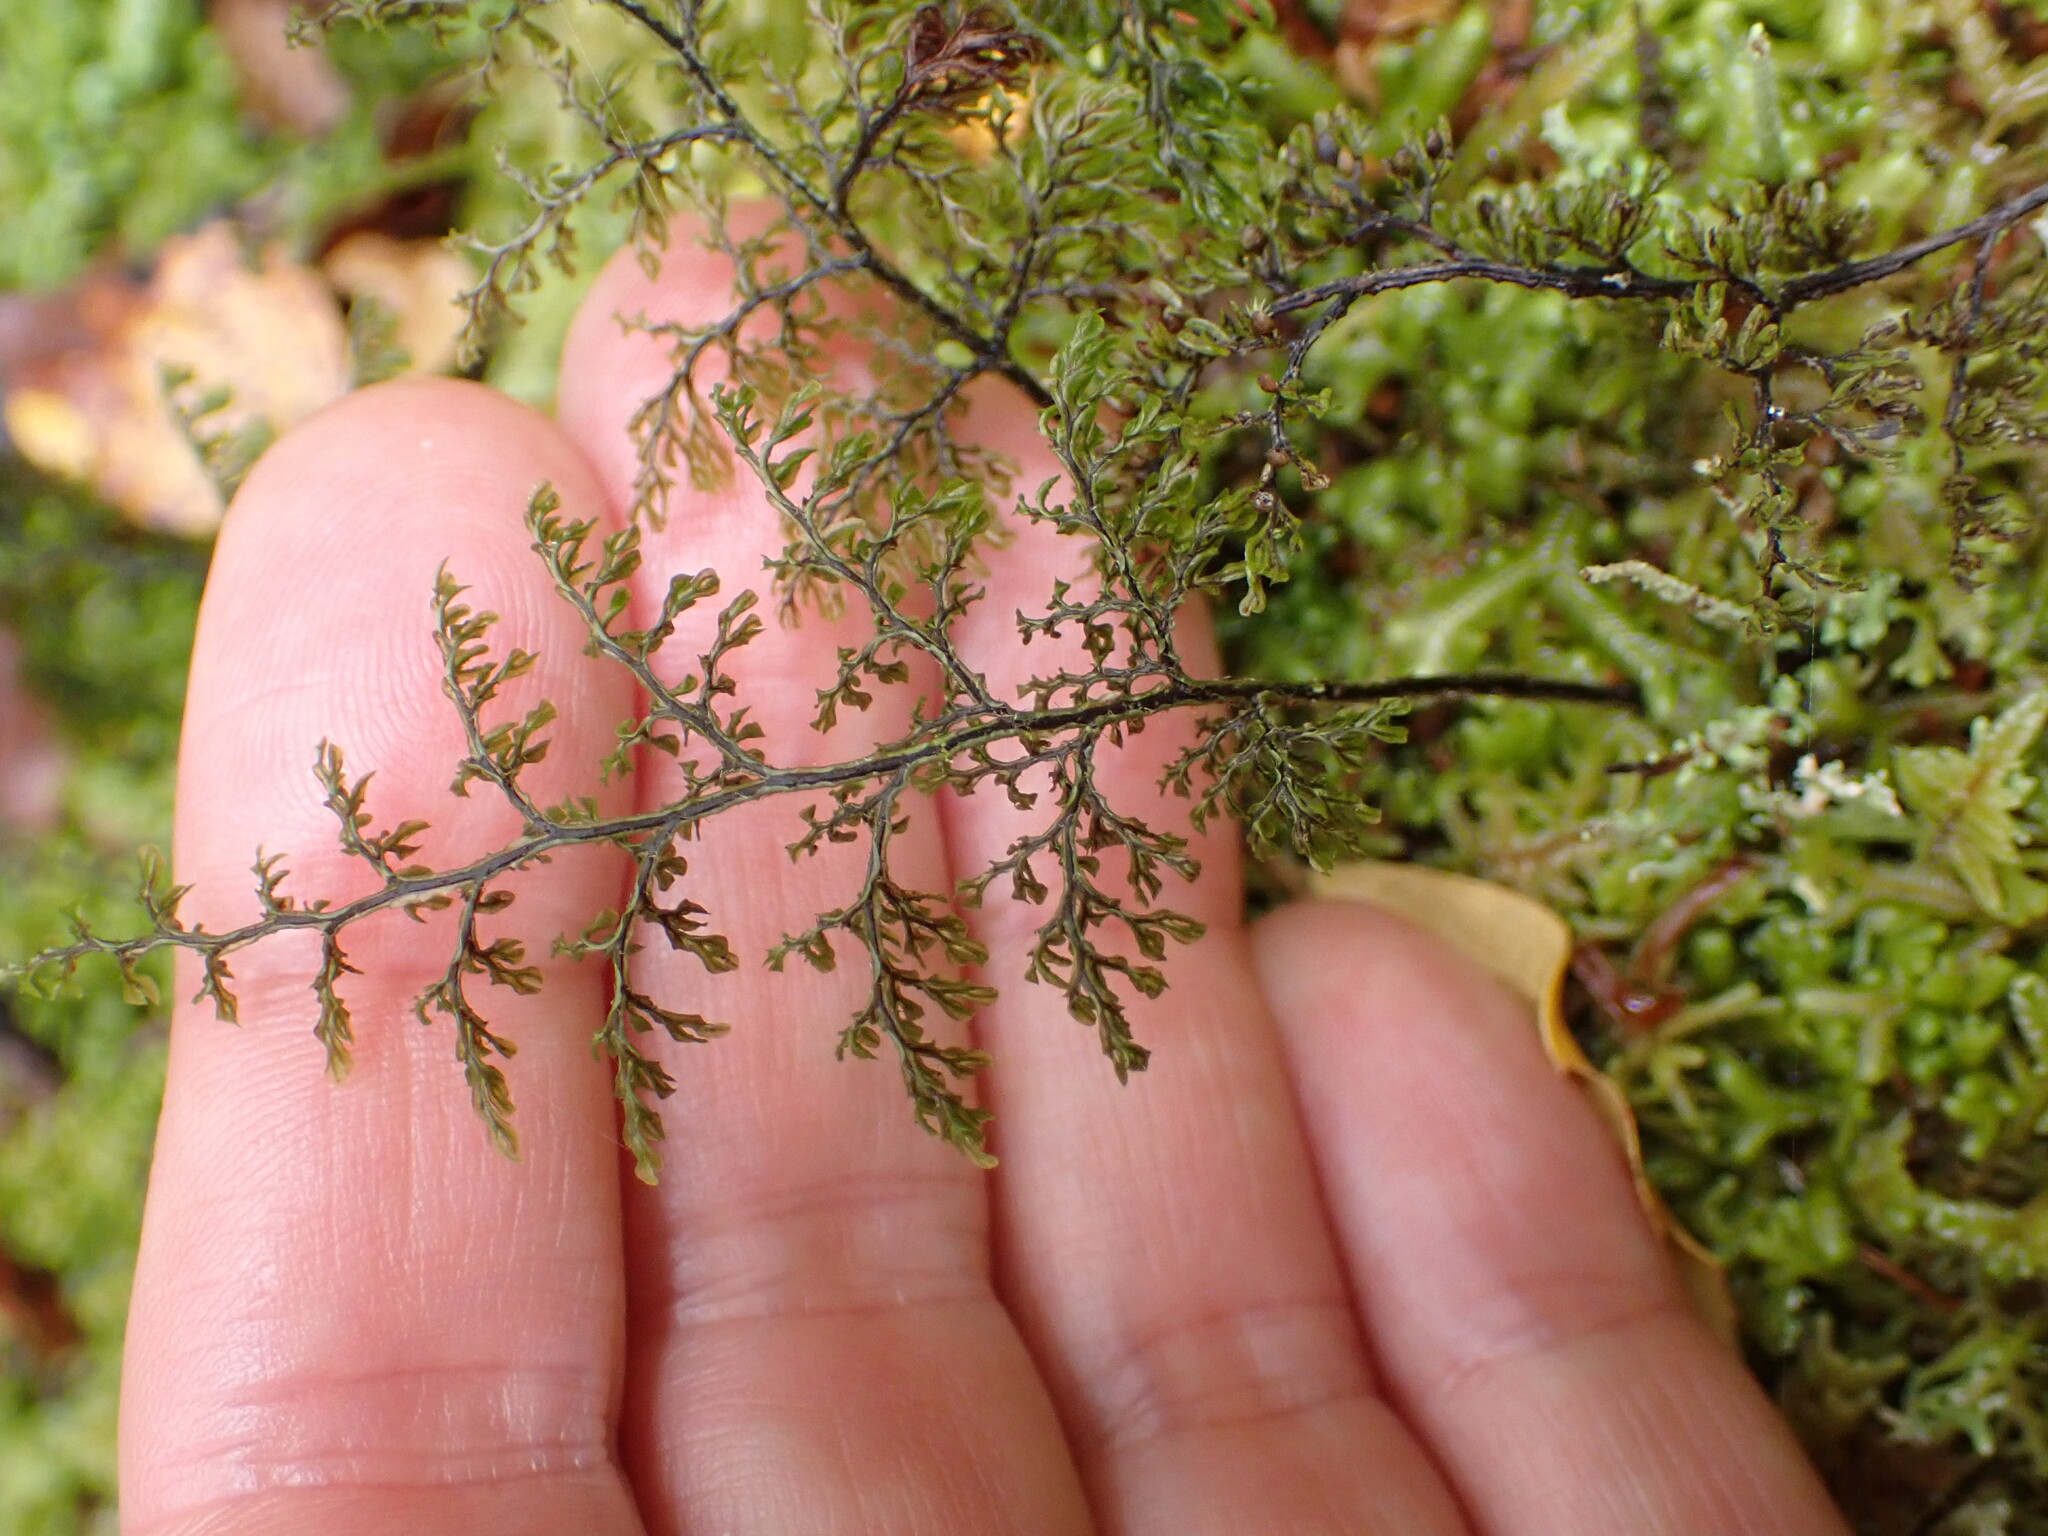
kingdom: Plantae
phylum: Tracheophyta
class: Polypodiopsida
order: Hymenophyllales
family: Hymenophyllaceae
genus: Hymenophyllum
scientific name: Hymenophyllum villosum
